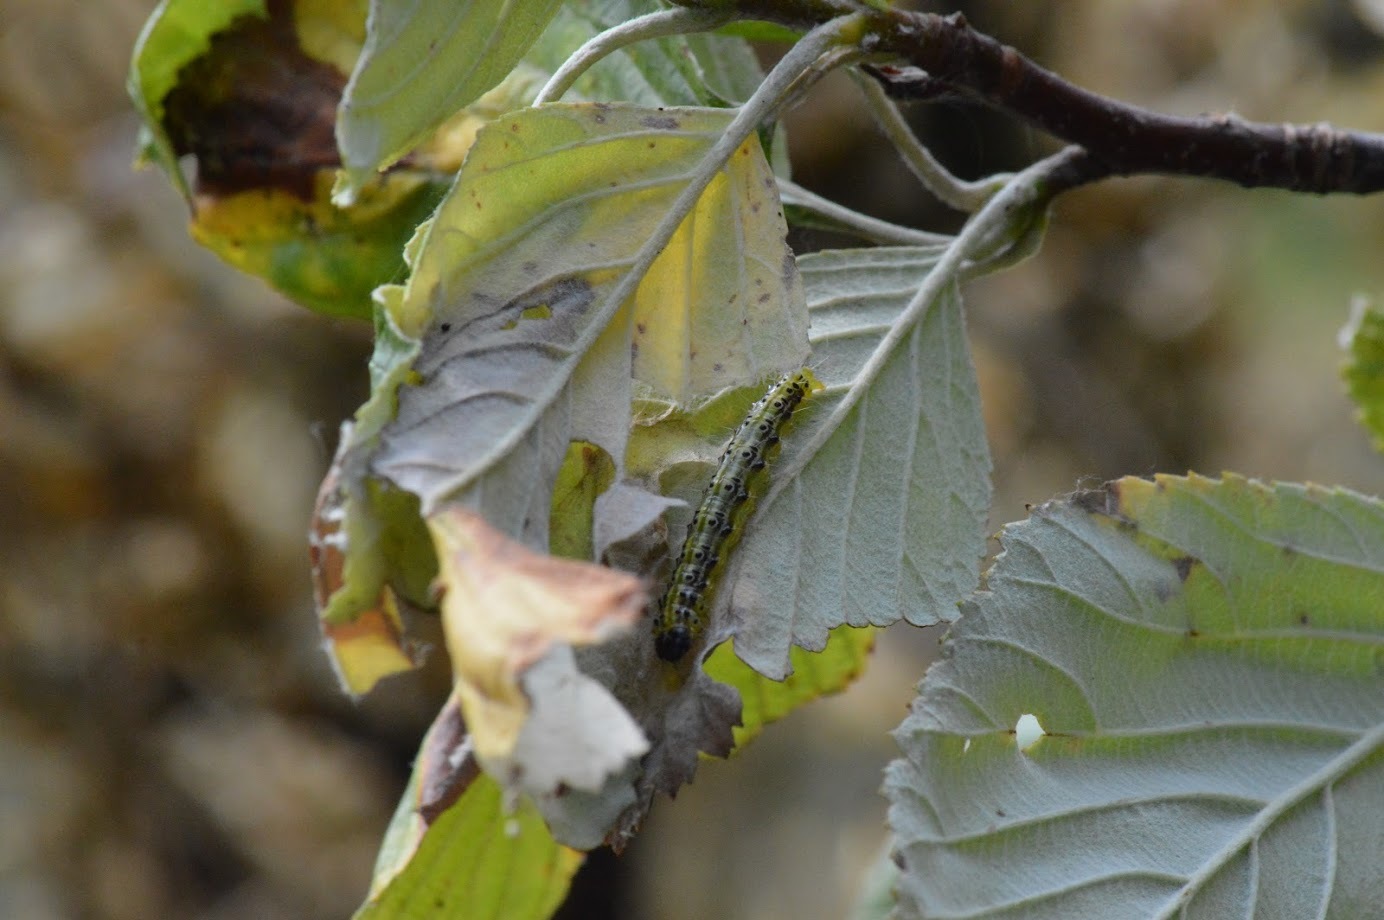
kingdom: Animalia
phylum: Arthropoda
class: Insecta
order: Lepidoptera
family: Crambidae
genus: Cydalima
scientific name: Cydalima perspectalis
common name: Box tree moth
